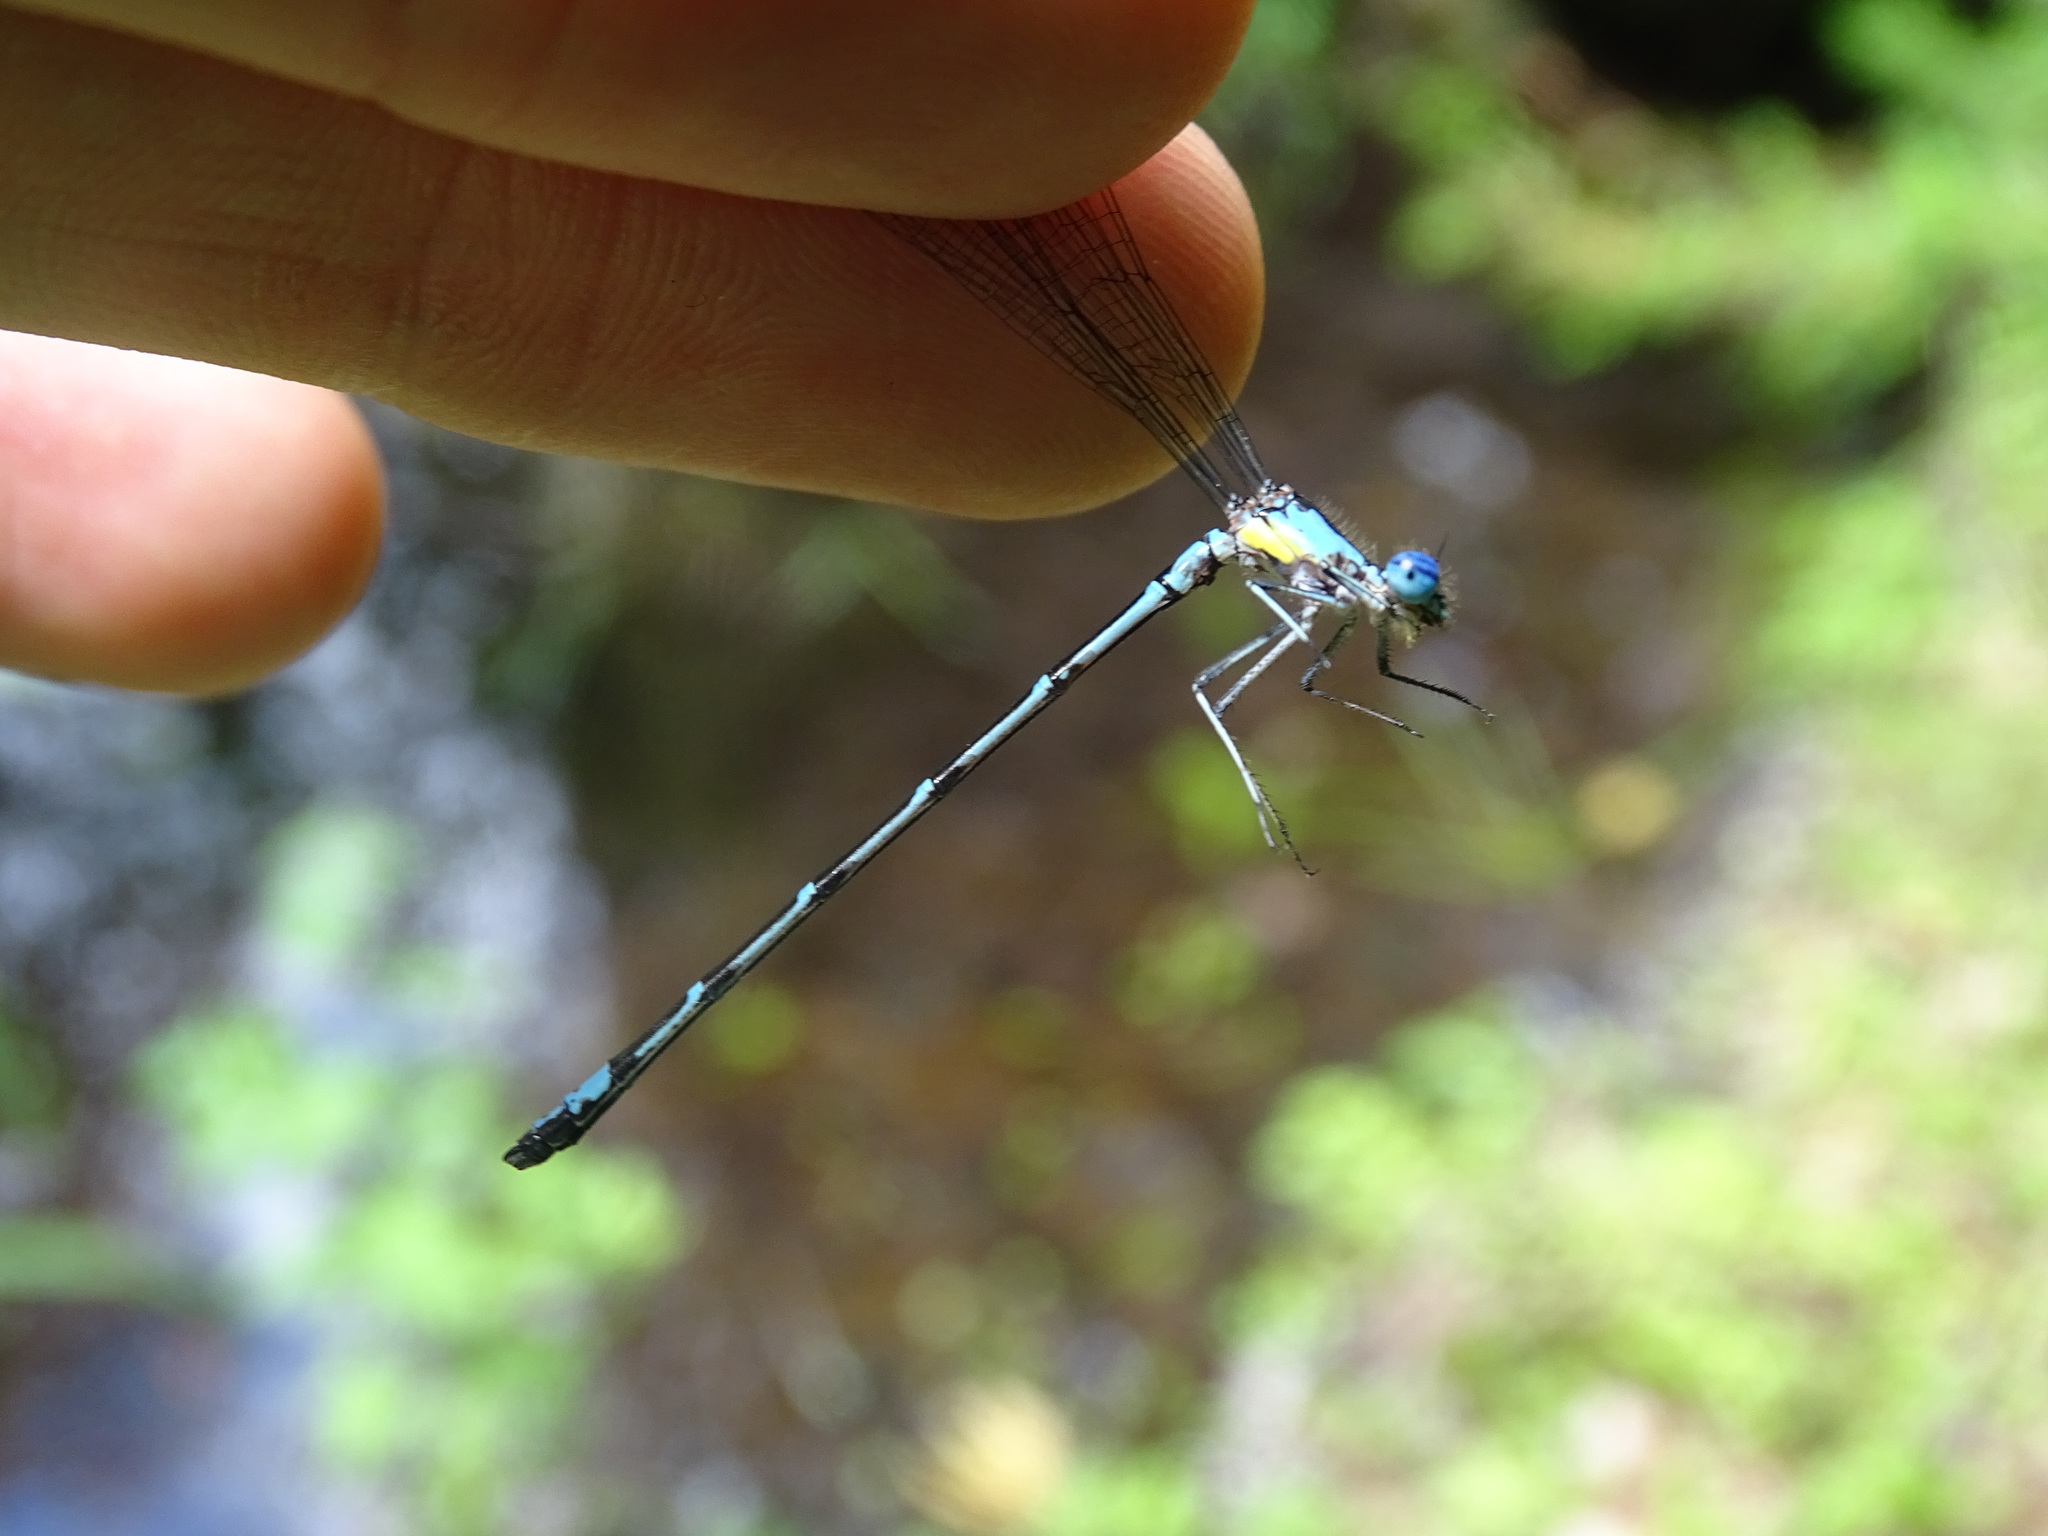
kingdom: Animalia
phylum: Arthropoda
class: Insecta
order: Odonata
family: Coenagrionidae
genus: Chromagrion
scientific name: Chromagrion conditum
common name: Aurora damsel
